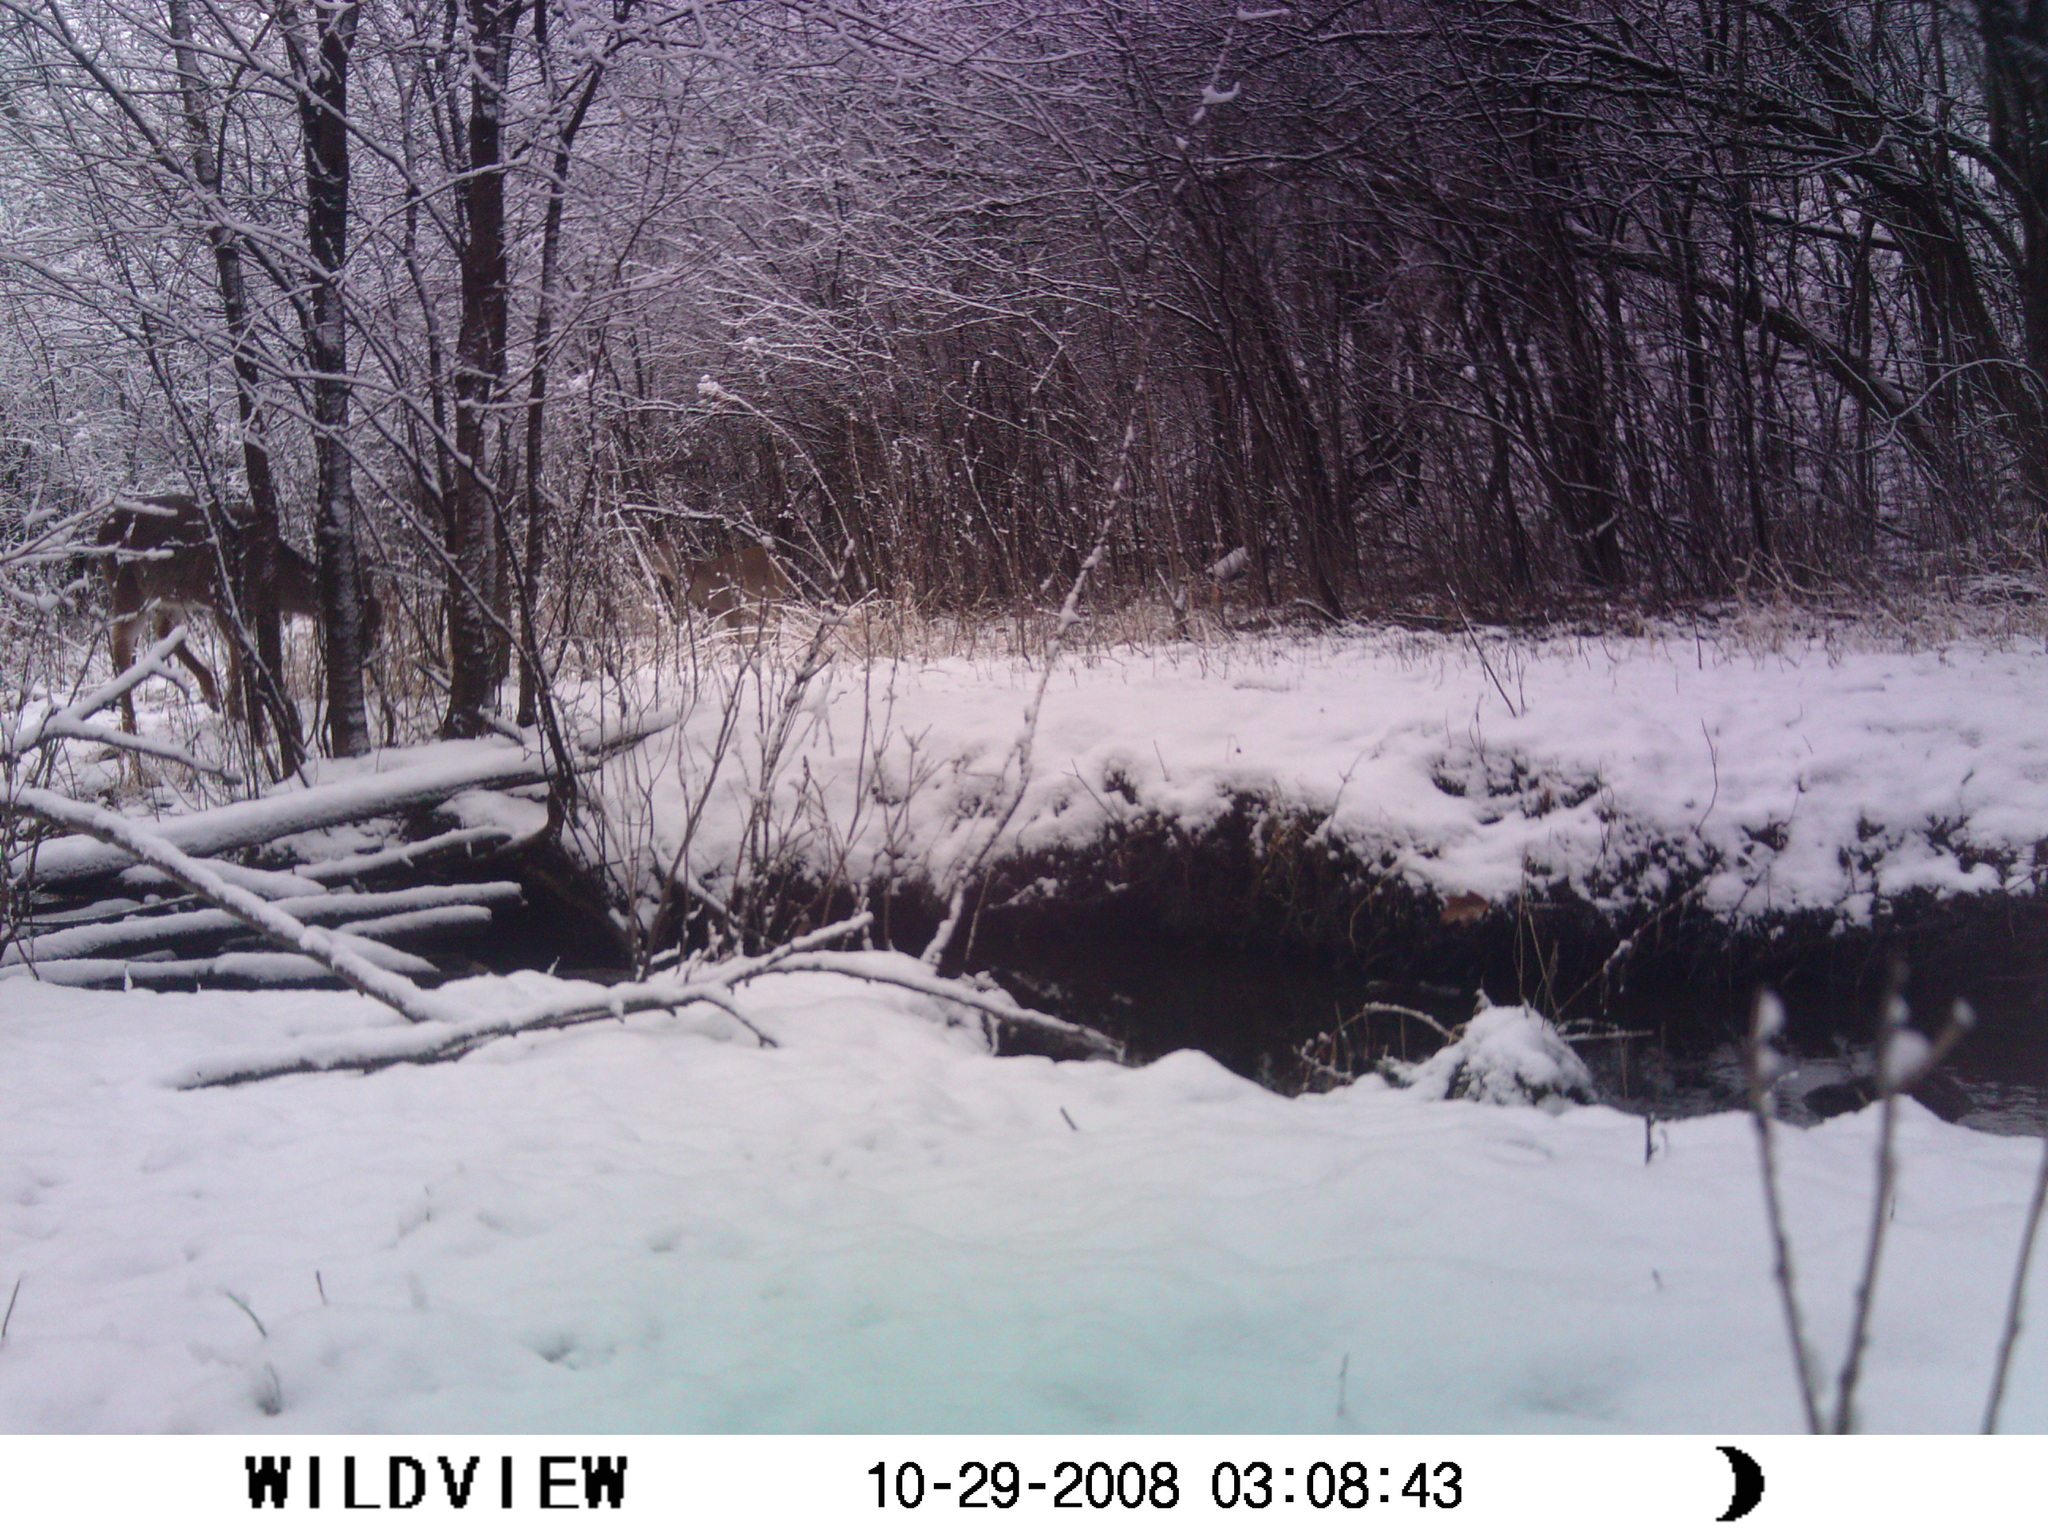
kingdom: Animalia
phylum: Chordata
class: Mammalia
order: Artiodactyla
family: Cervidae
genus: Odocoileus
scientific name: Odocoileus virginianus
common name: White-tailed deer
